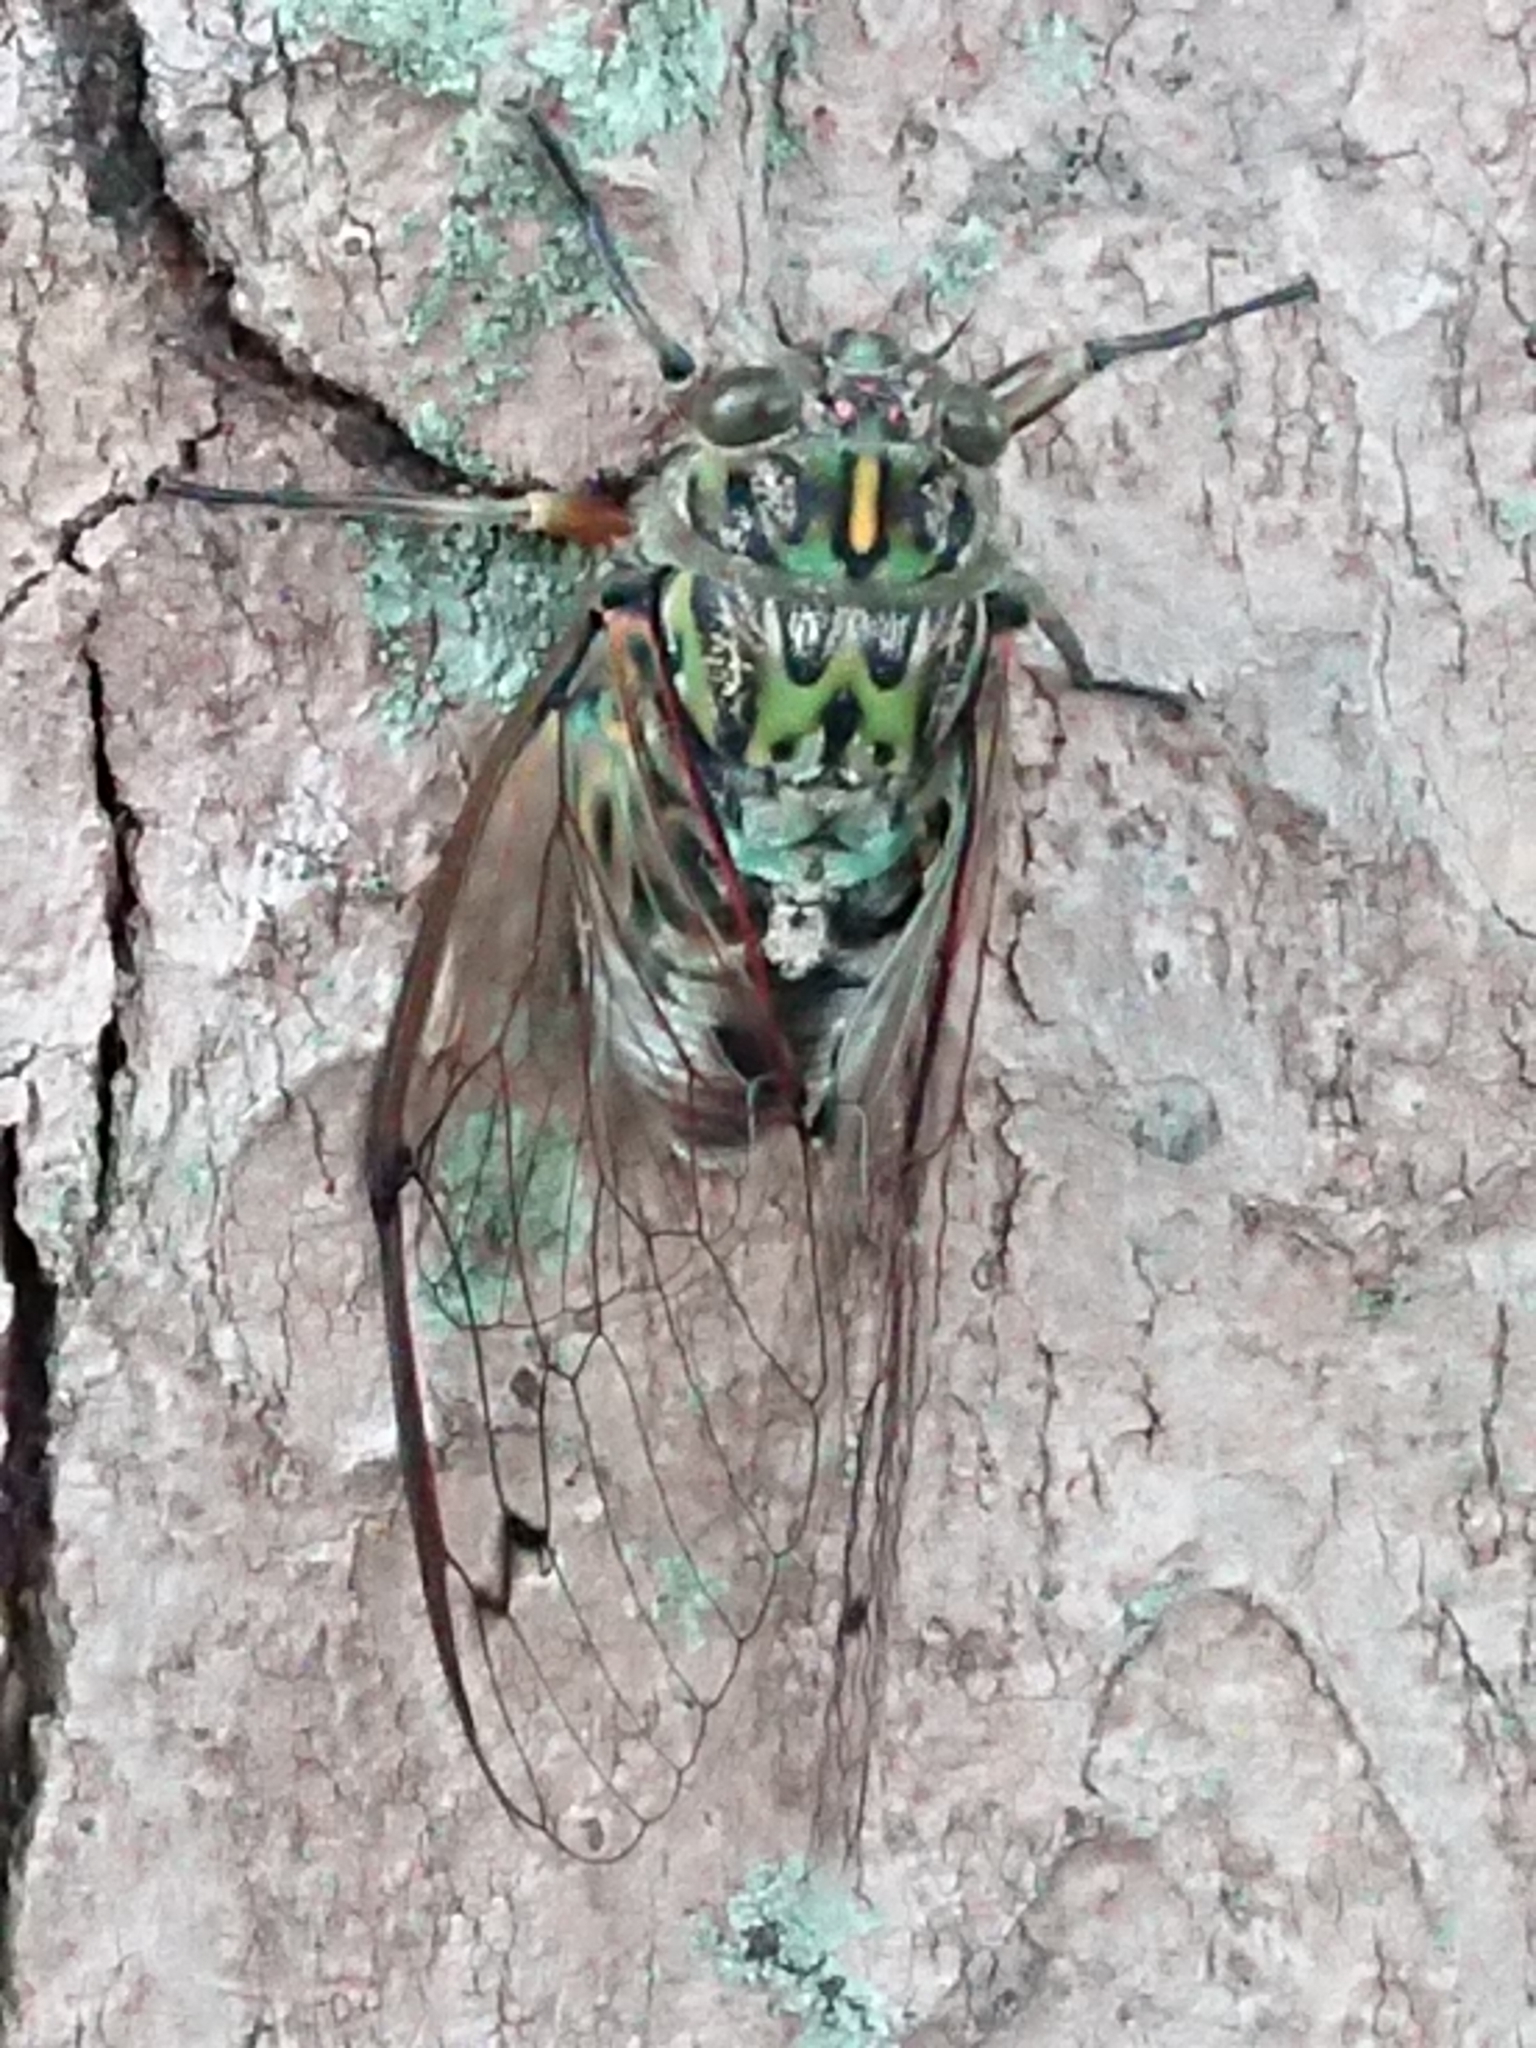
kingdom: Animalia
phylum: Arthropoda
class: Insecta
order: Hemiptera
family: Cicadidae
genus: Amphipsalta
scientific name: Amphipsalta zelandica
